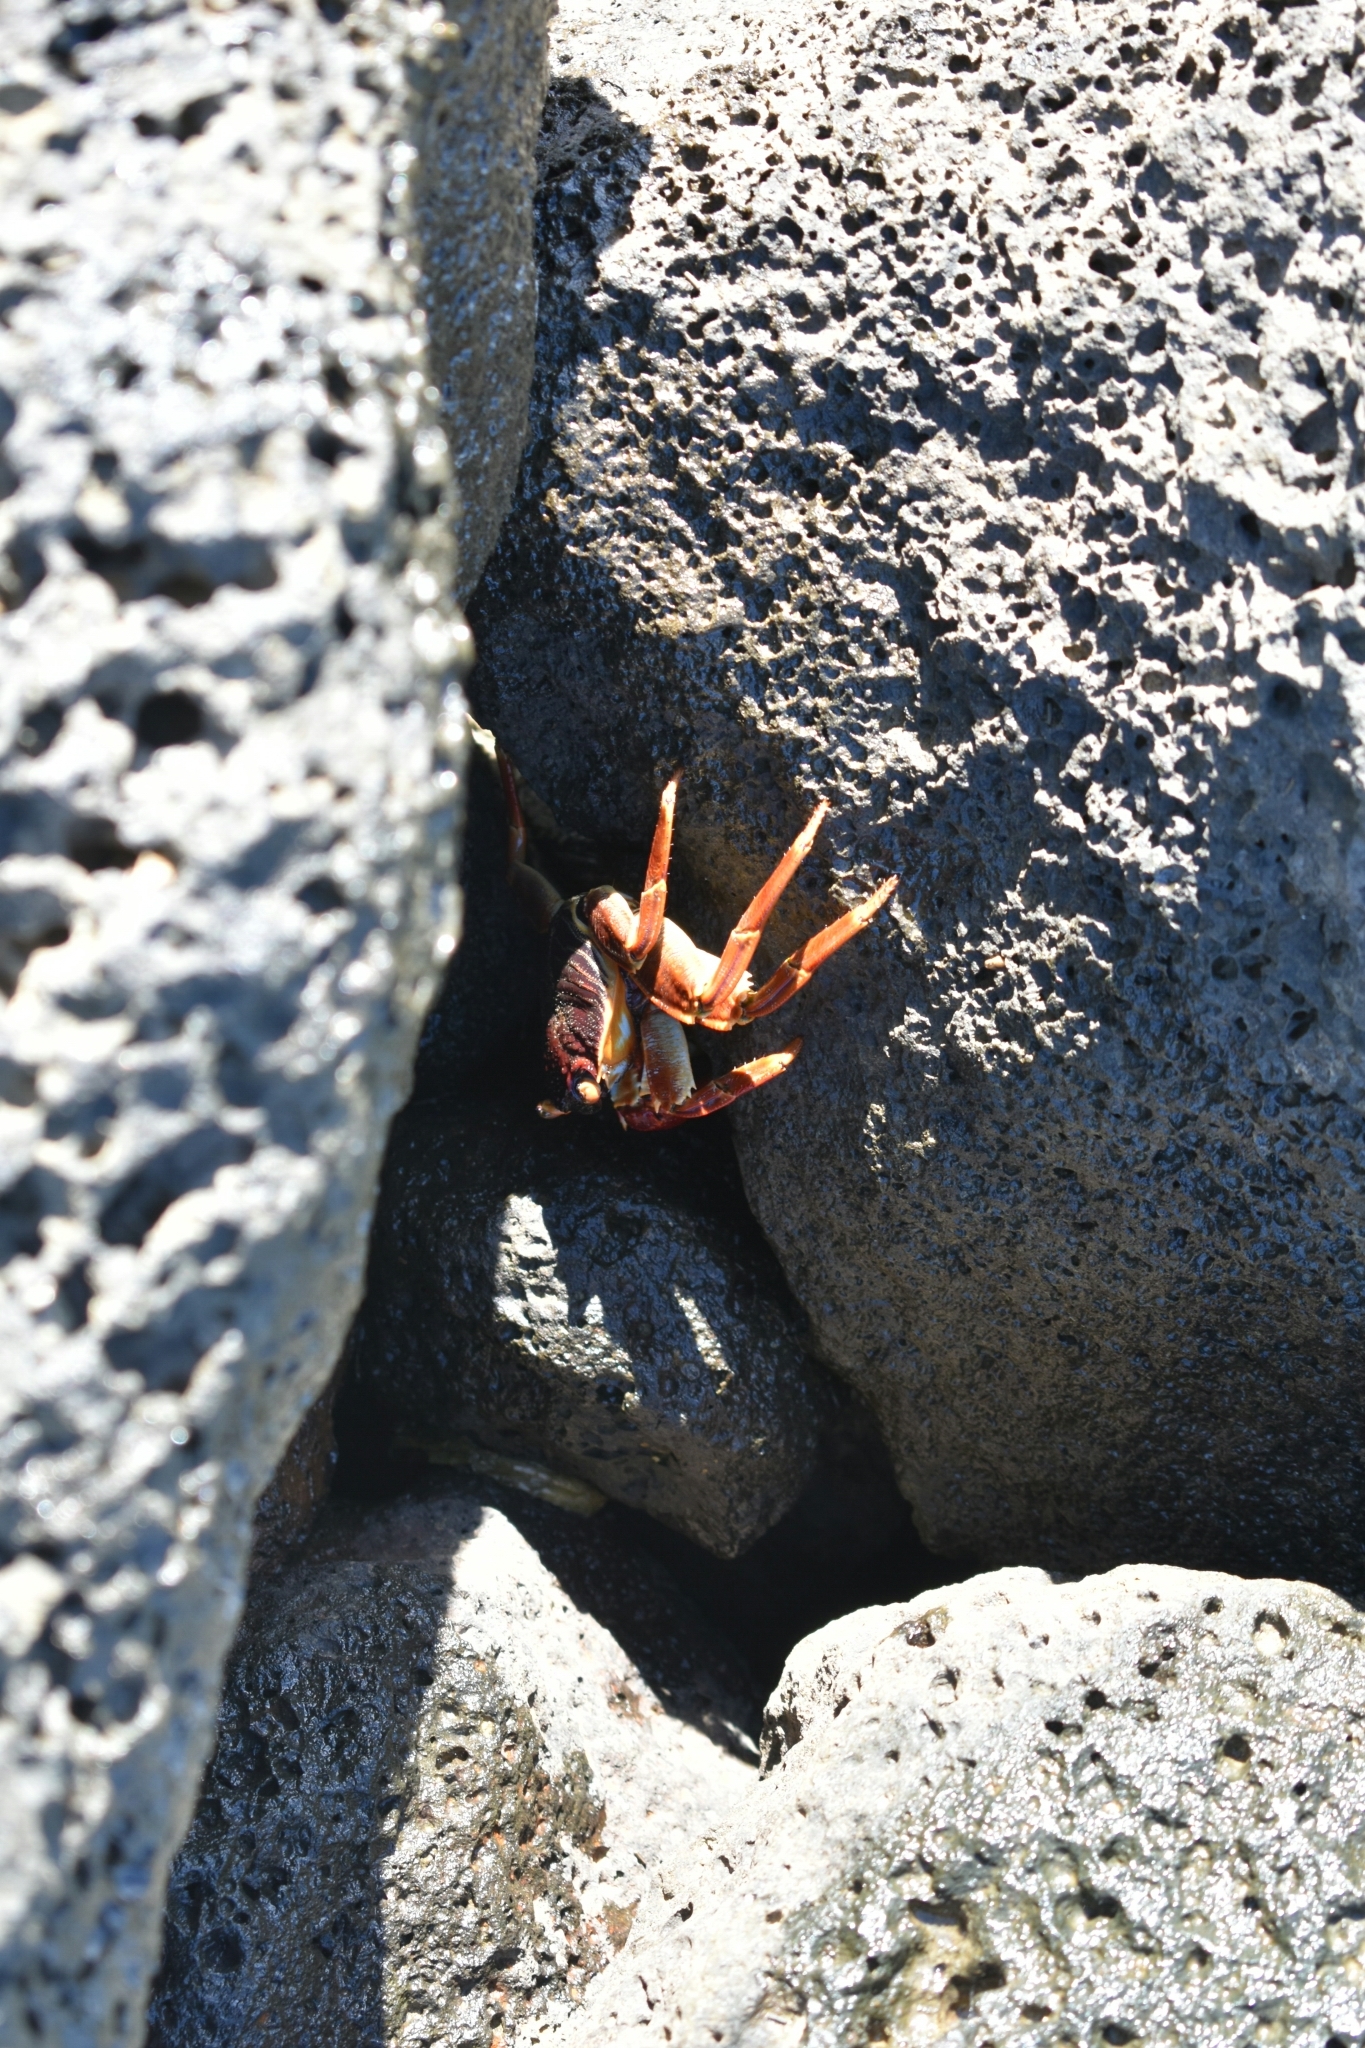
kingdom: Animalia
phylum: Arthropoda
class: Malacostraca
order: Decapoda
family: Grapsidae
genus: Grapsus
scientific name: Grapsus tenuicrustatus
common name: Natal lightfoot crab
